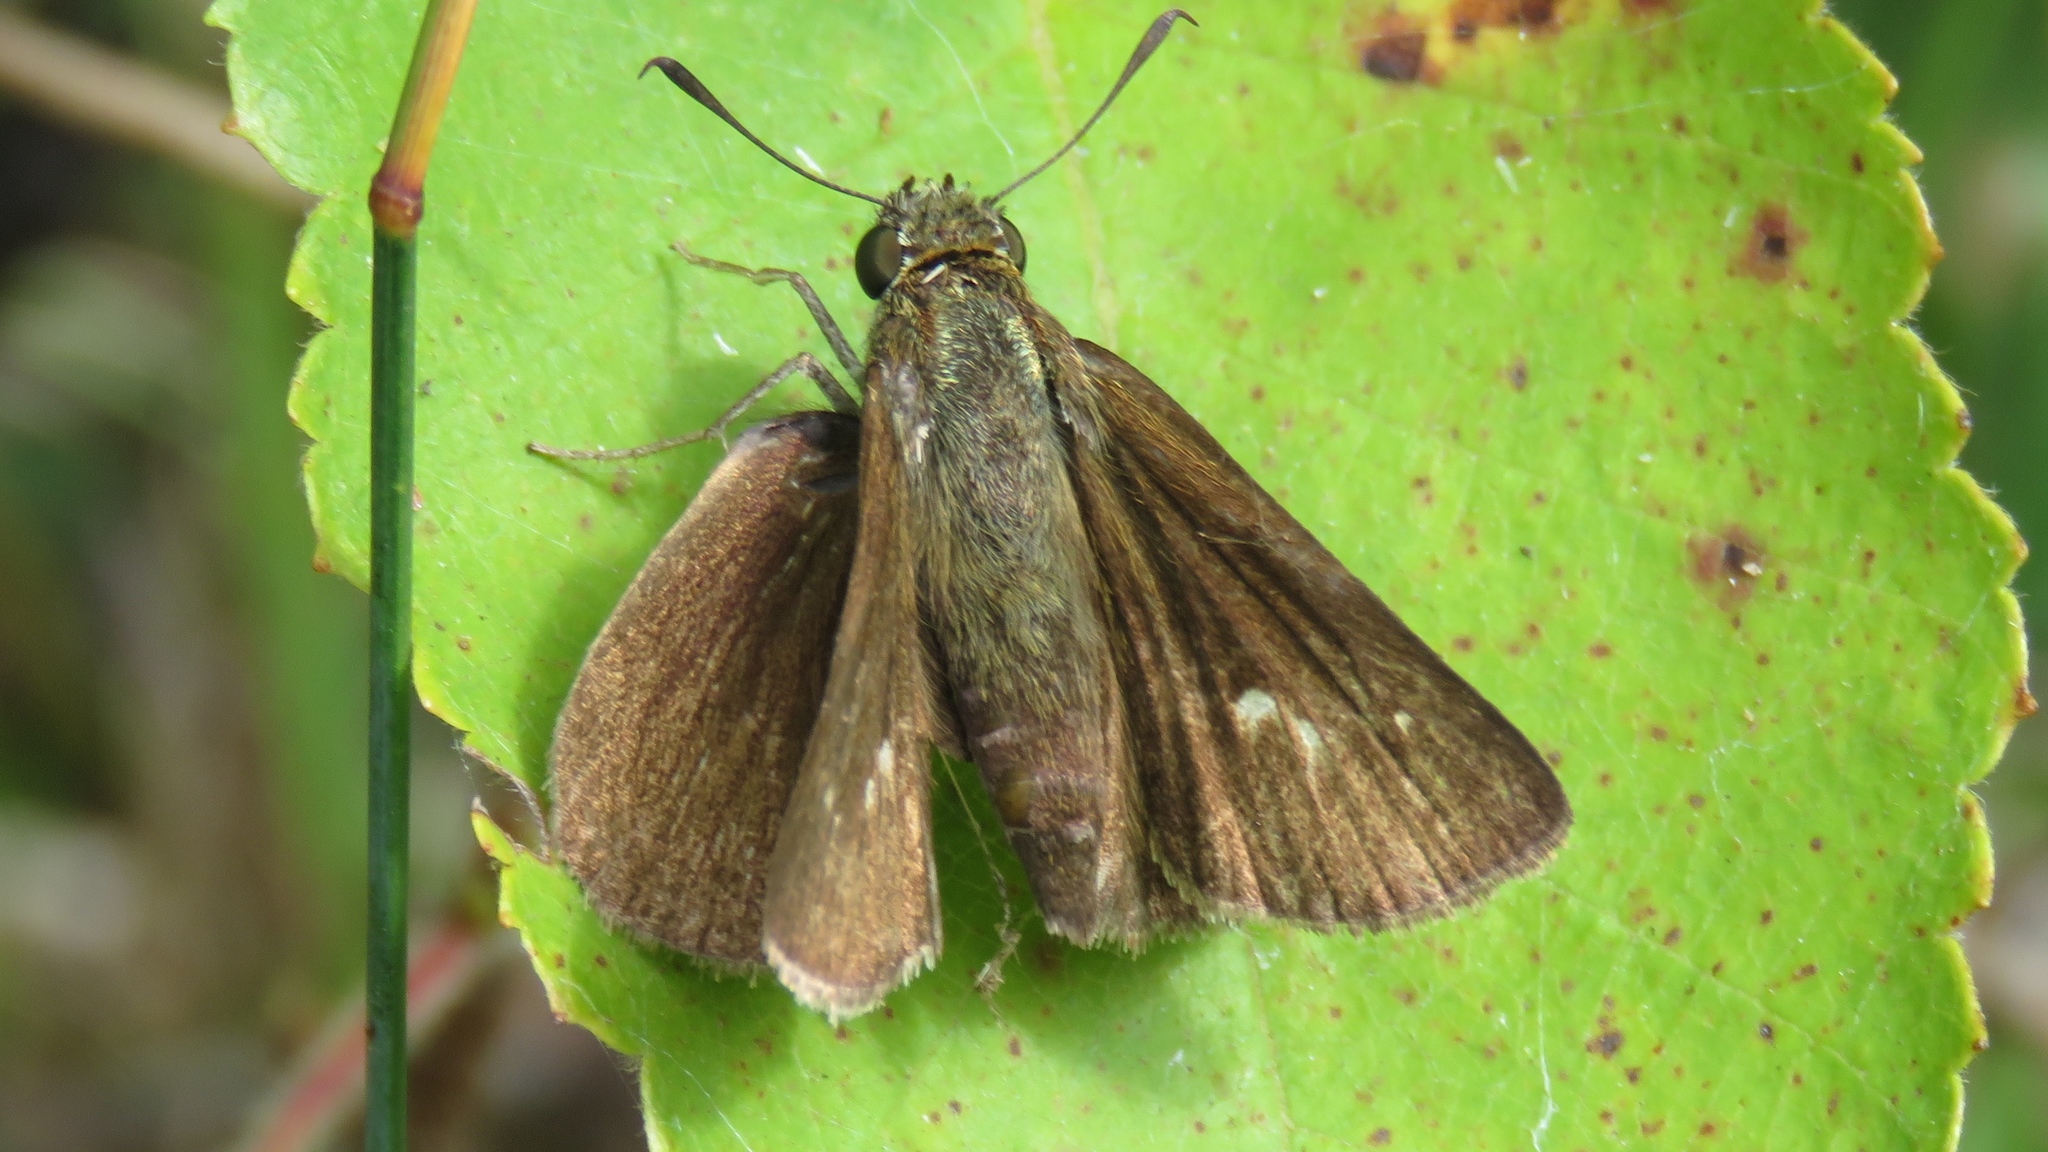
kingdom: Animalia
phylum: Arthropoda
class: Insecta
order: Lepidoptera
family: Hesperiidae
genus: Euphyes
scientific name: Euphyes vestris
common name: Dun skipper
